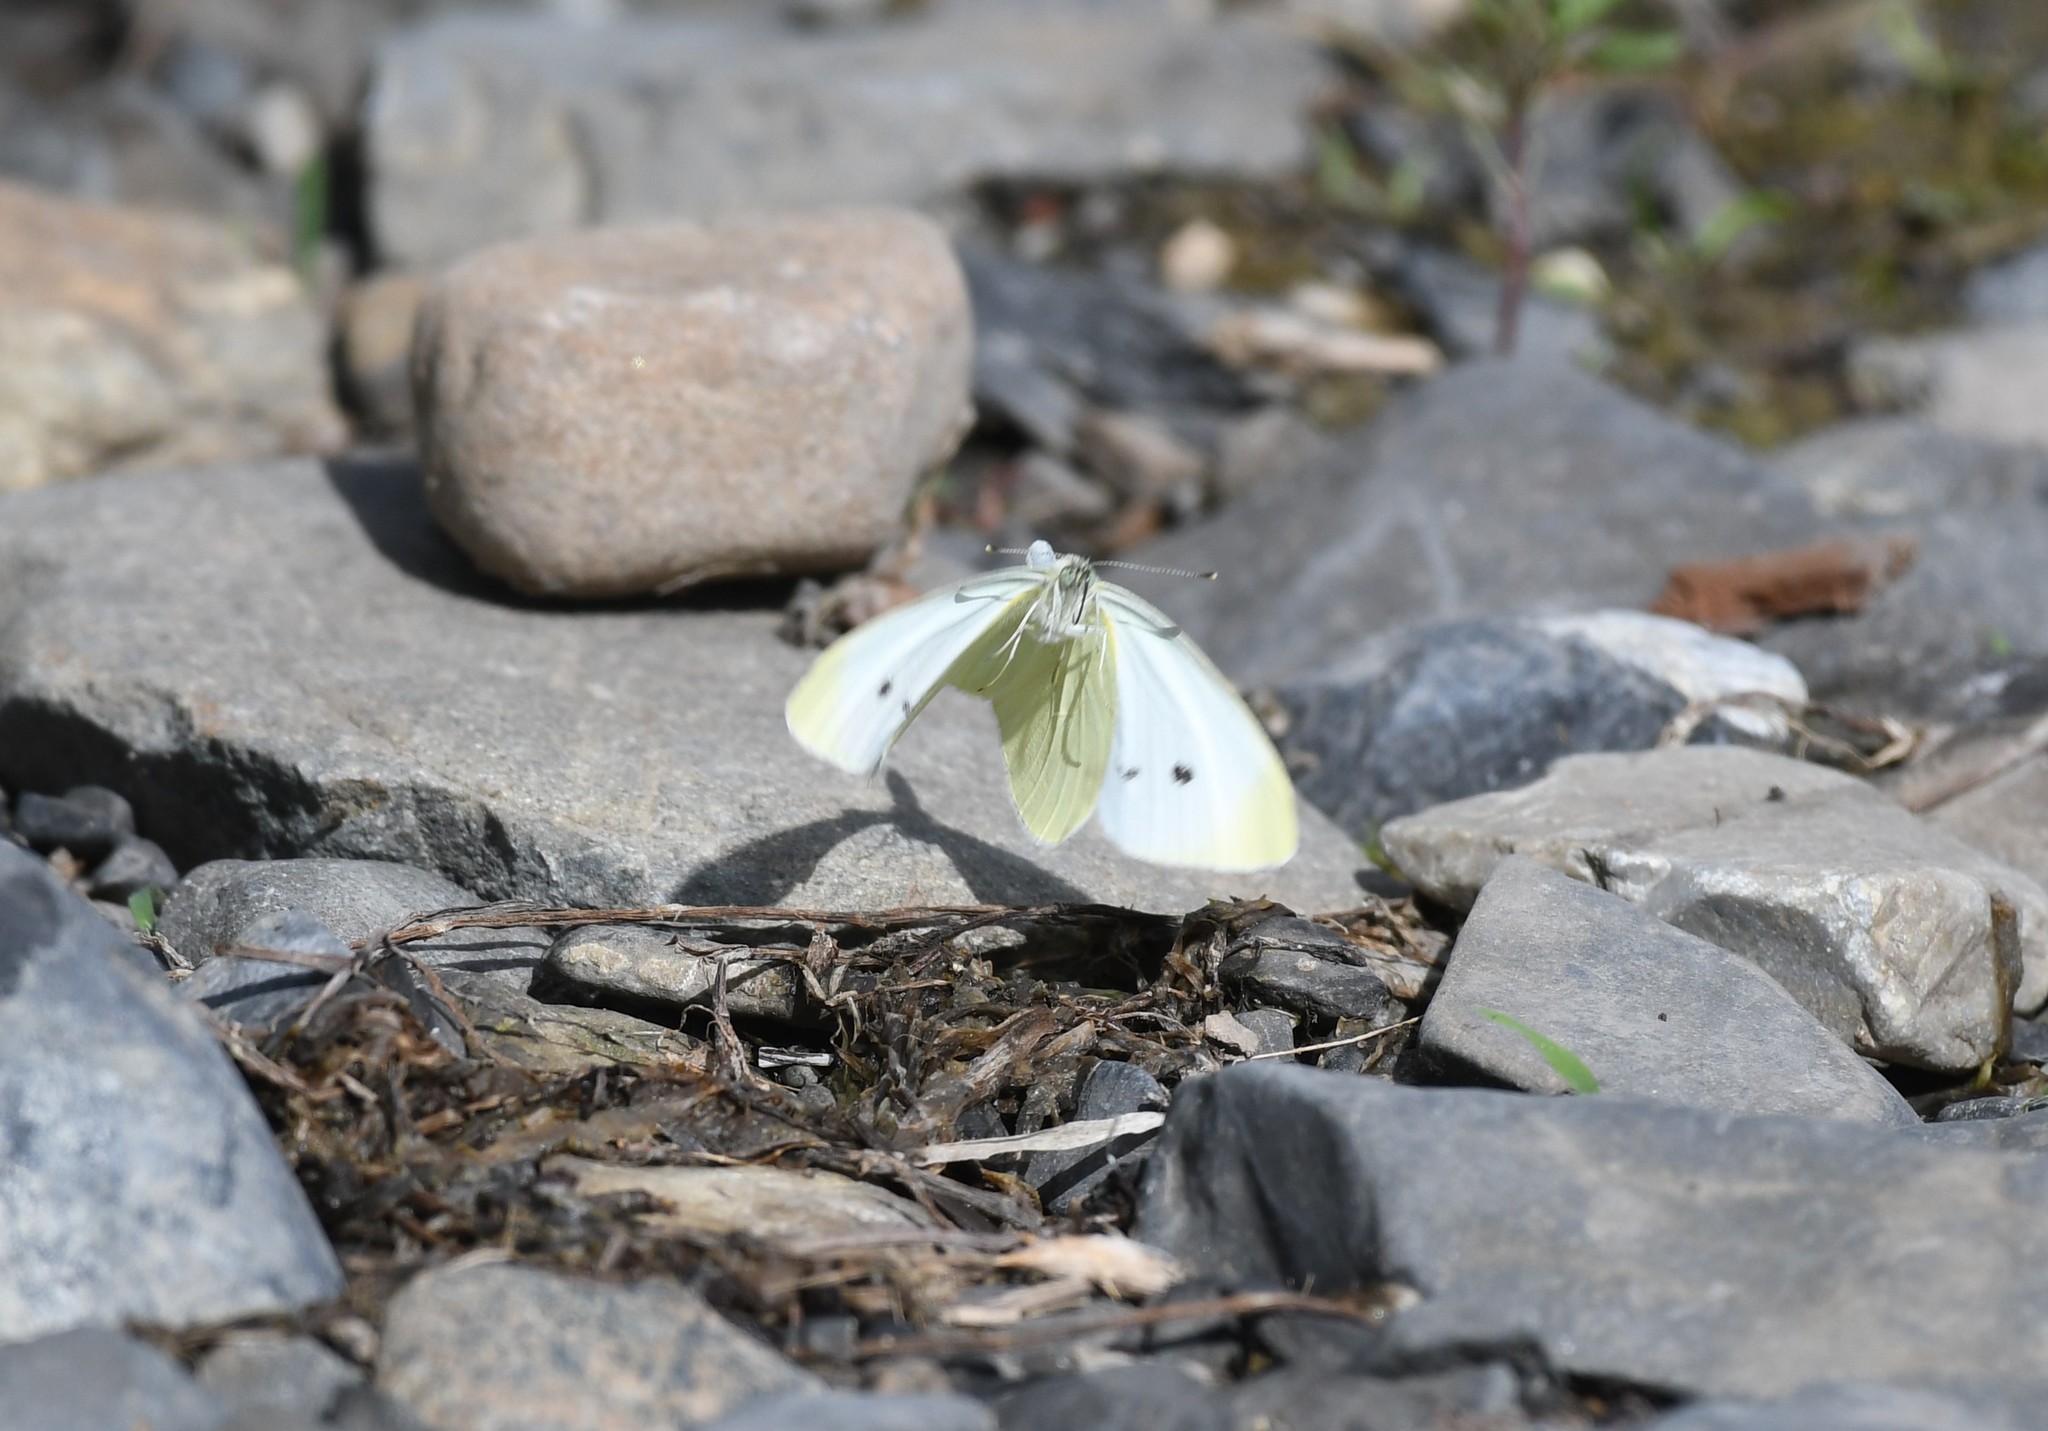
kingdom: Animalia
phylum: Arthropoda
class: Insecta
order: Lepidoptera
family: Pieridae
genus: Pieris
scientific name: Pieris rapae
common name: Small white
